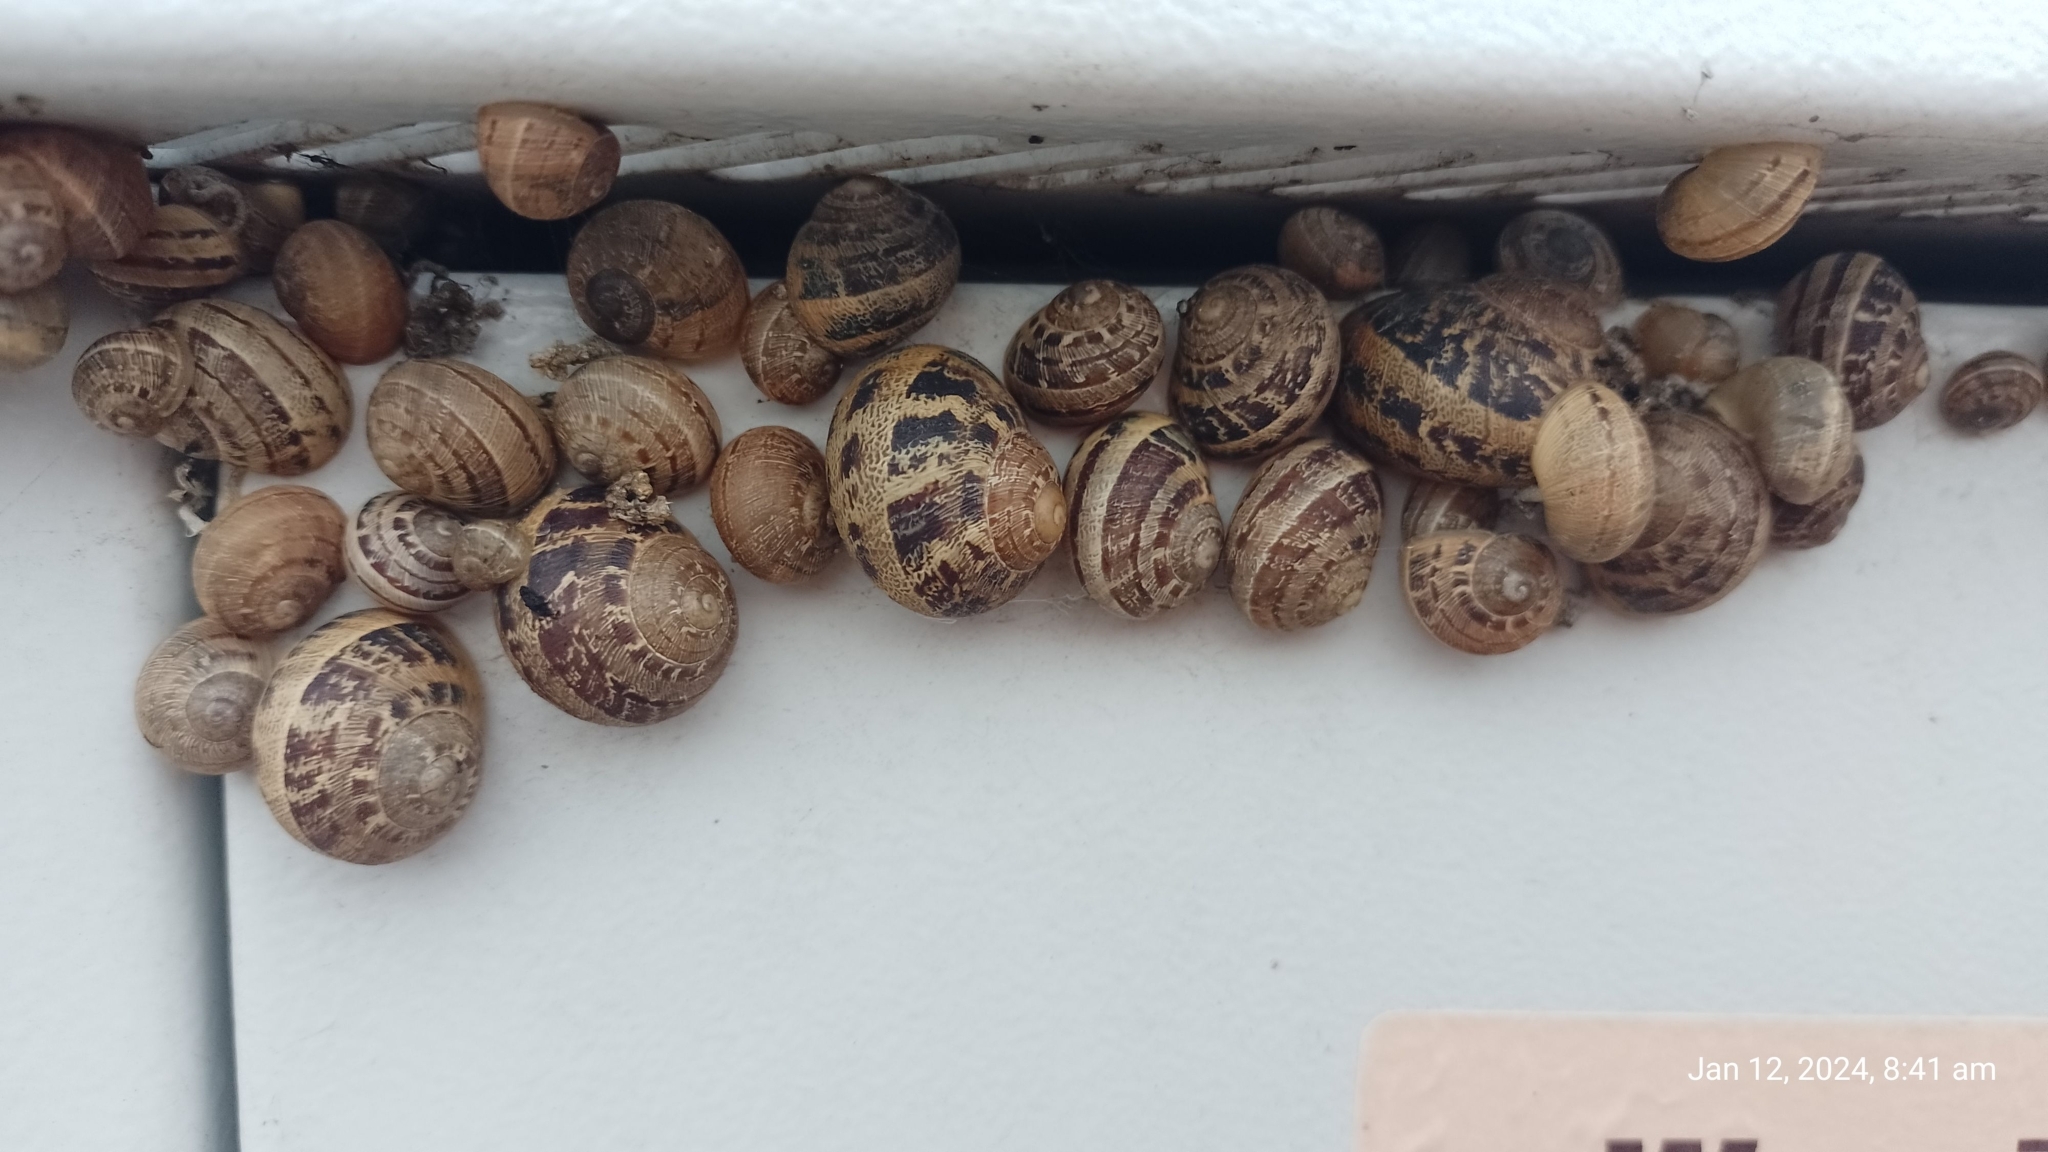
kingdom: Animalia
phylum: Mollusca
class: Gastropoda
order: Stylommatophora
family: Helicidae
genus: Cornu
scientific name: Cornu aspersum
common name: Brown garden snail
